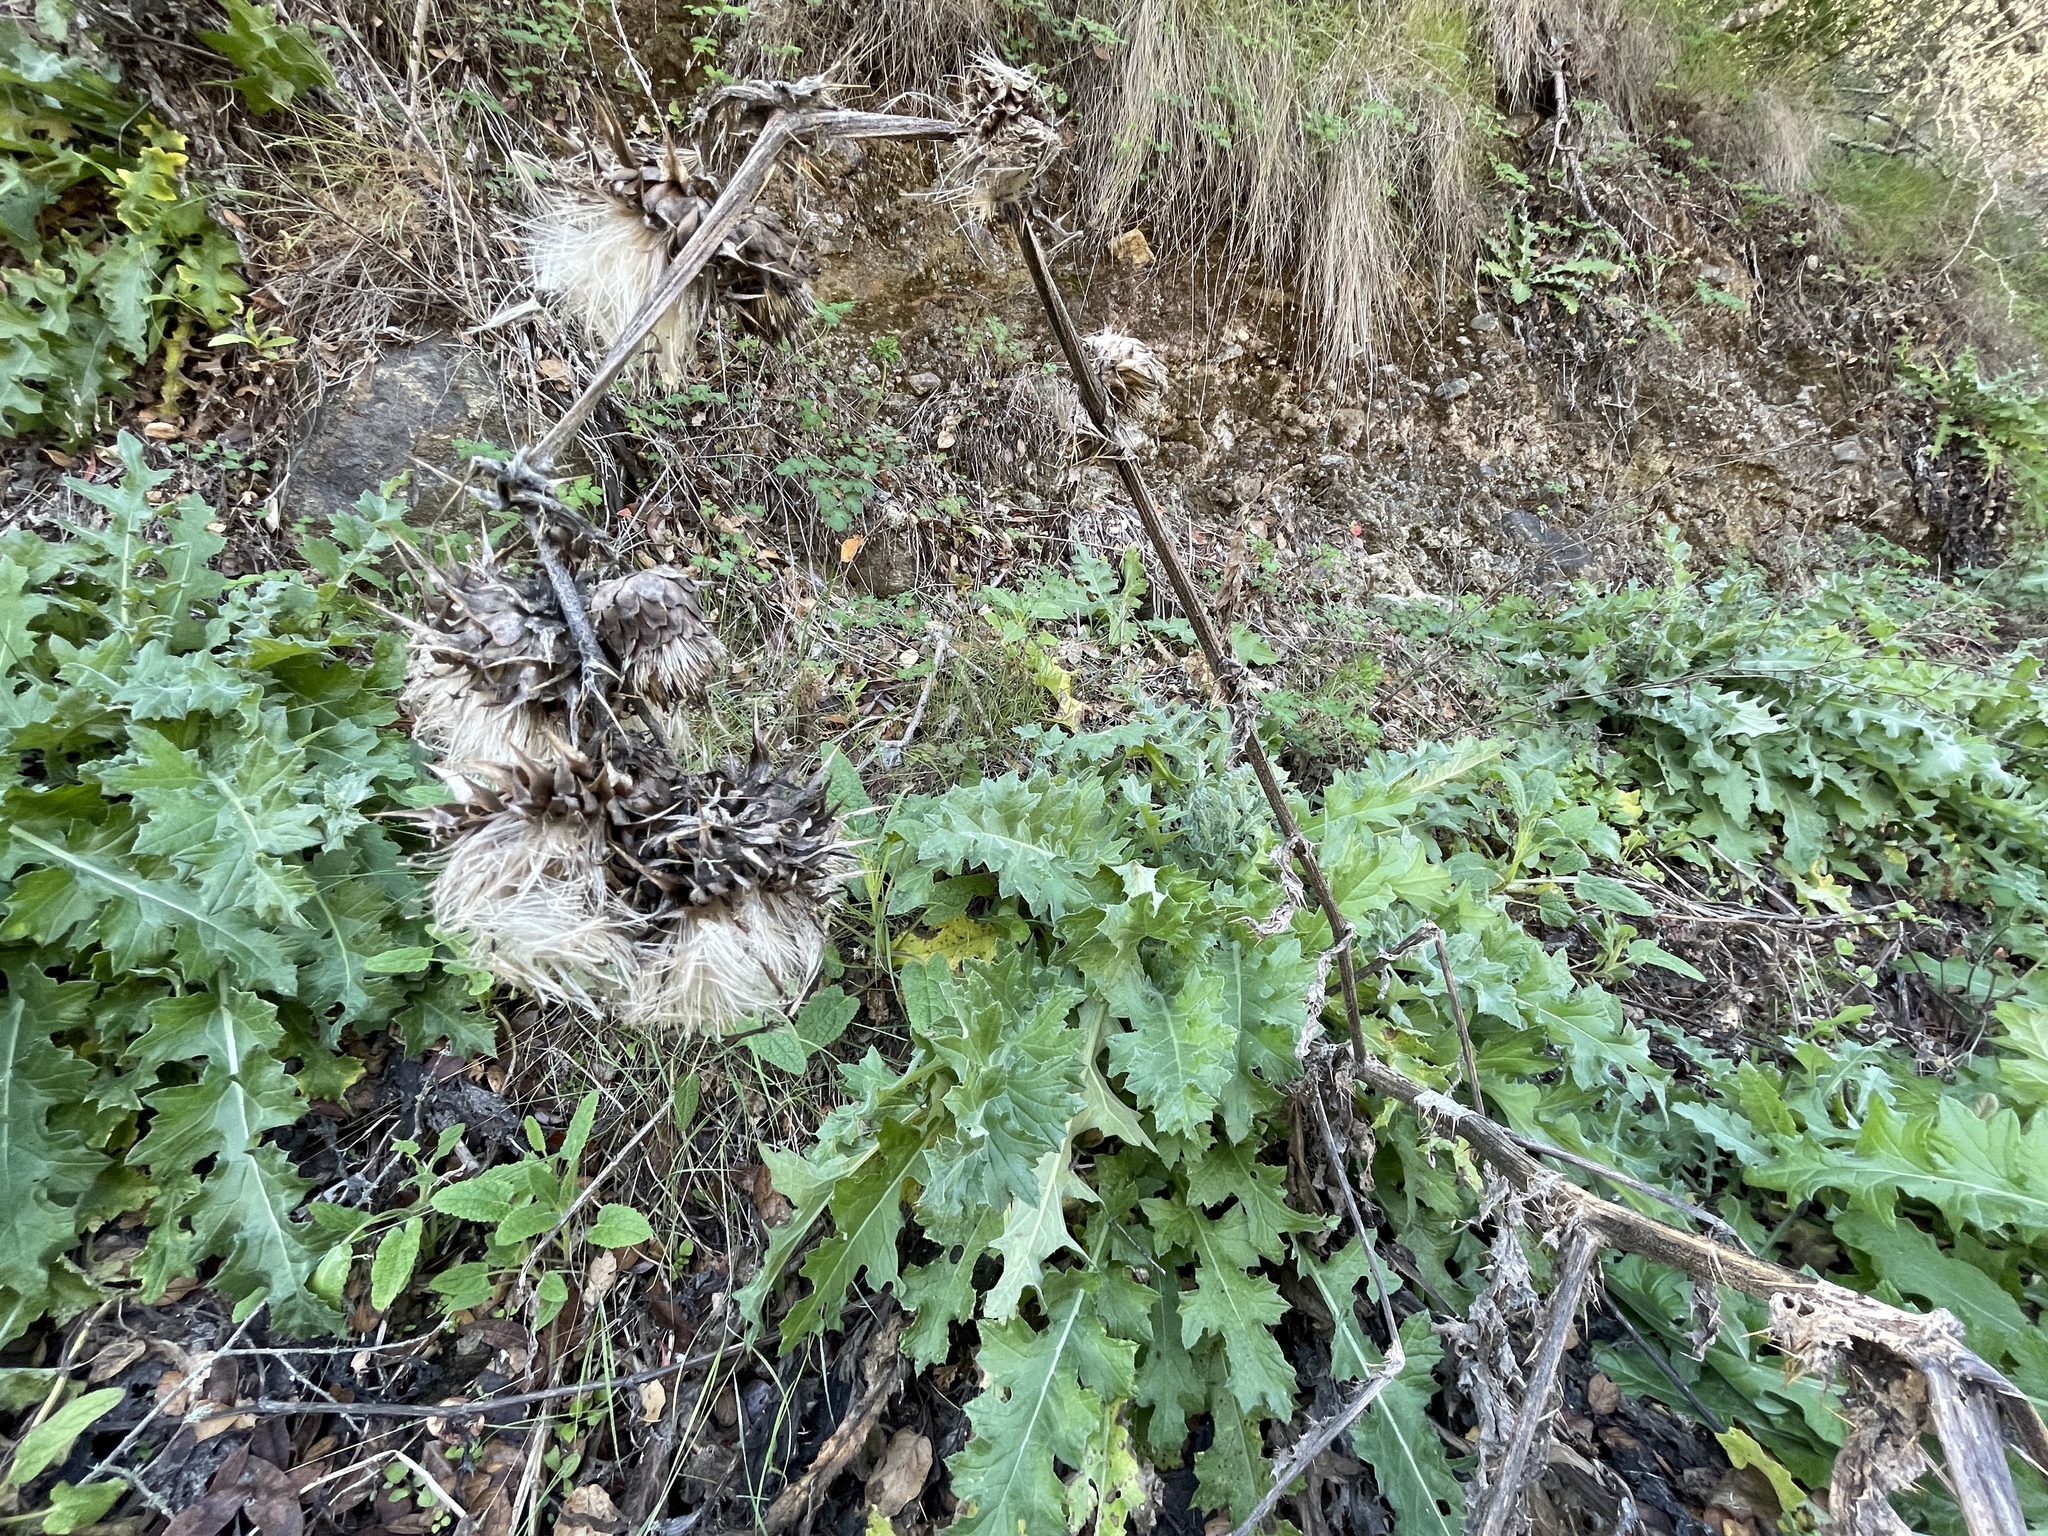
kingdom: Plantae
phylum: Tracheophyta
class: Magnoliopsida
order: Asterales
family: Asteraceae
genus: Cirsium
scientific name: Cirsium fontinale
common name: Fountain thistle
